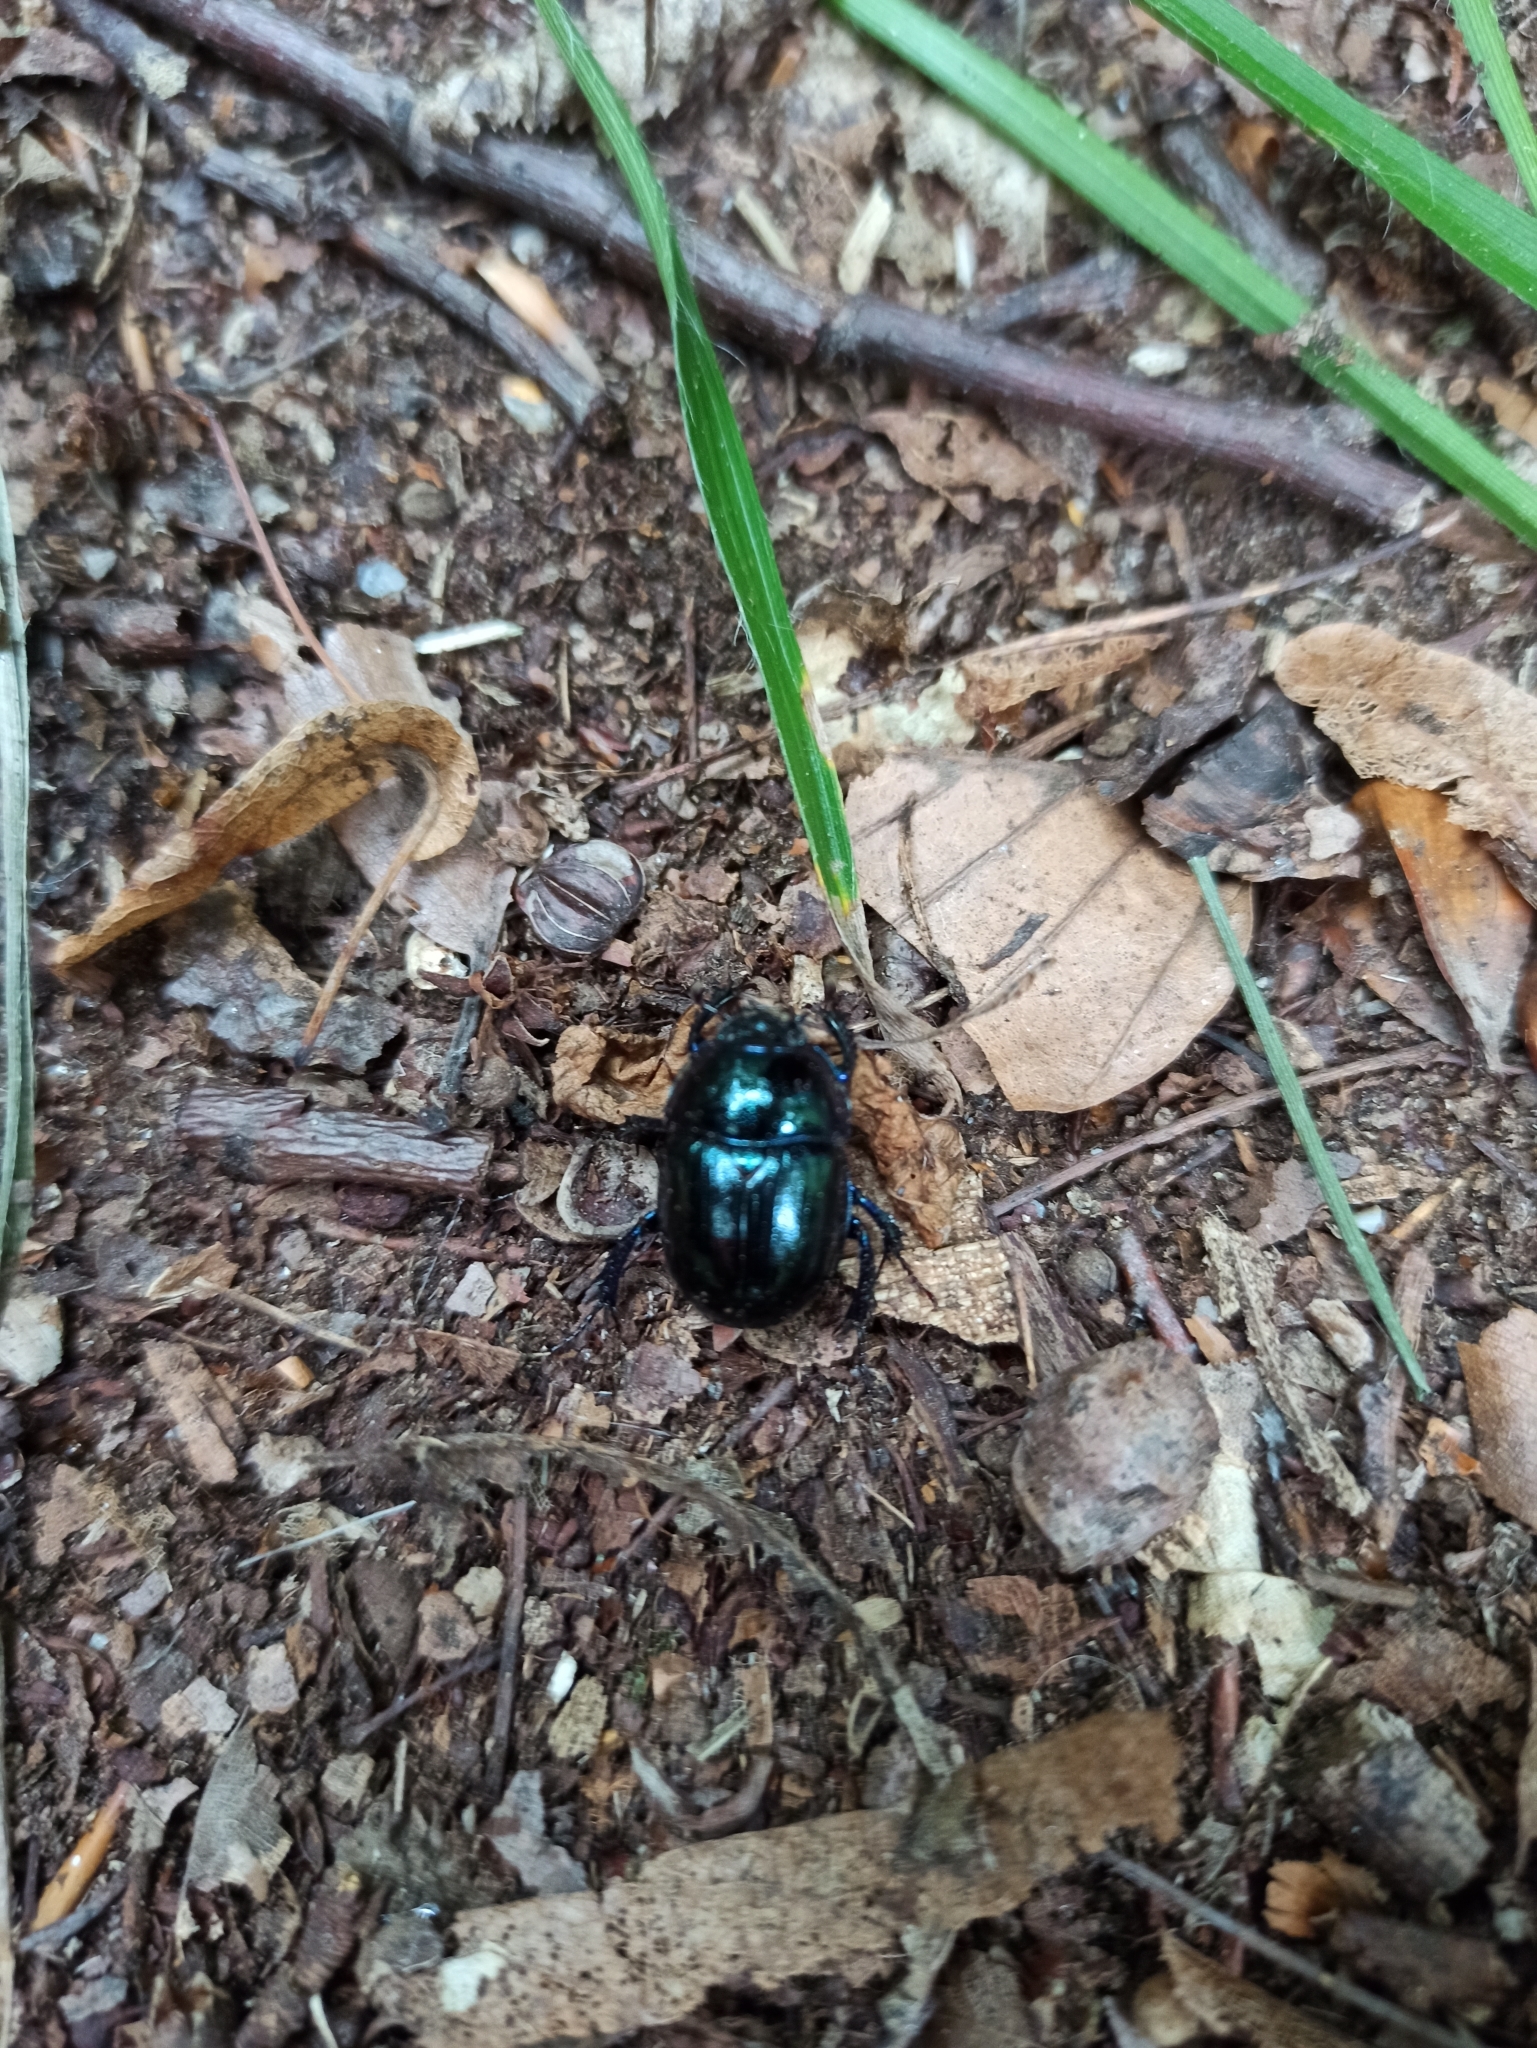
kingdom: Animalia
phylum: Arthropoda
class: Insecta
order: Coleoptera
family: Geotrupidae
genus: Anoplotrupes
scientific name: Anoplotrupes stercorosus
